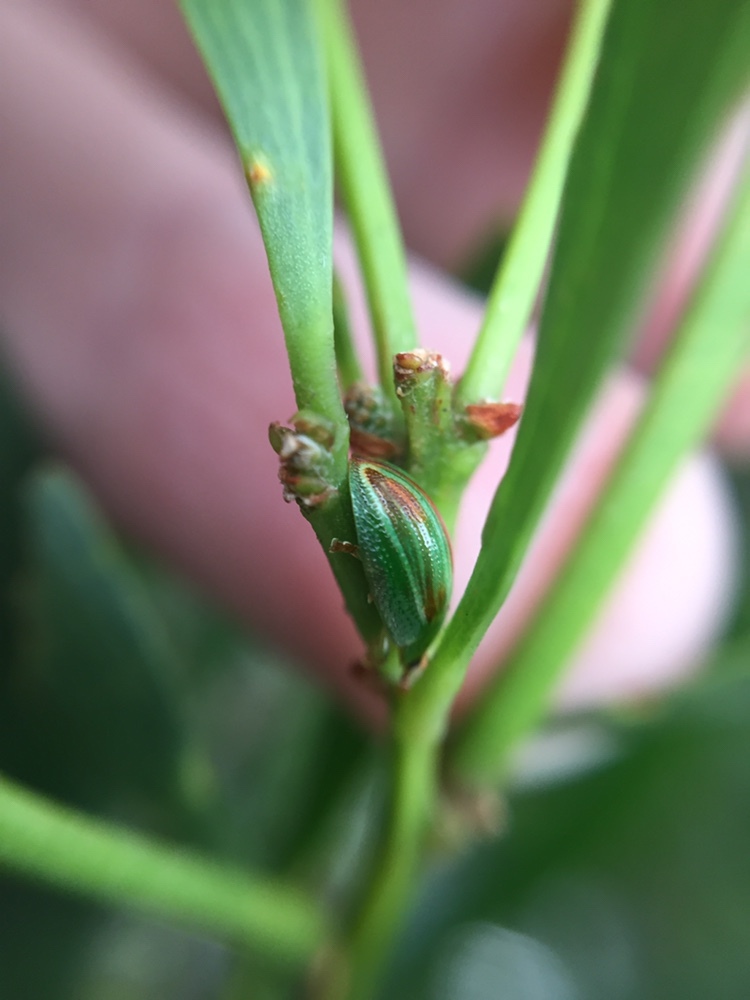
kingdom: Animalia
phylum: Arthropoda
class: Insecta
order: Coleoptera
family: Chrysomelidae
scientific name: Chrysomelidae
